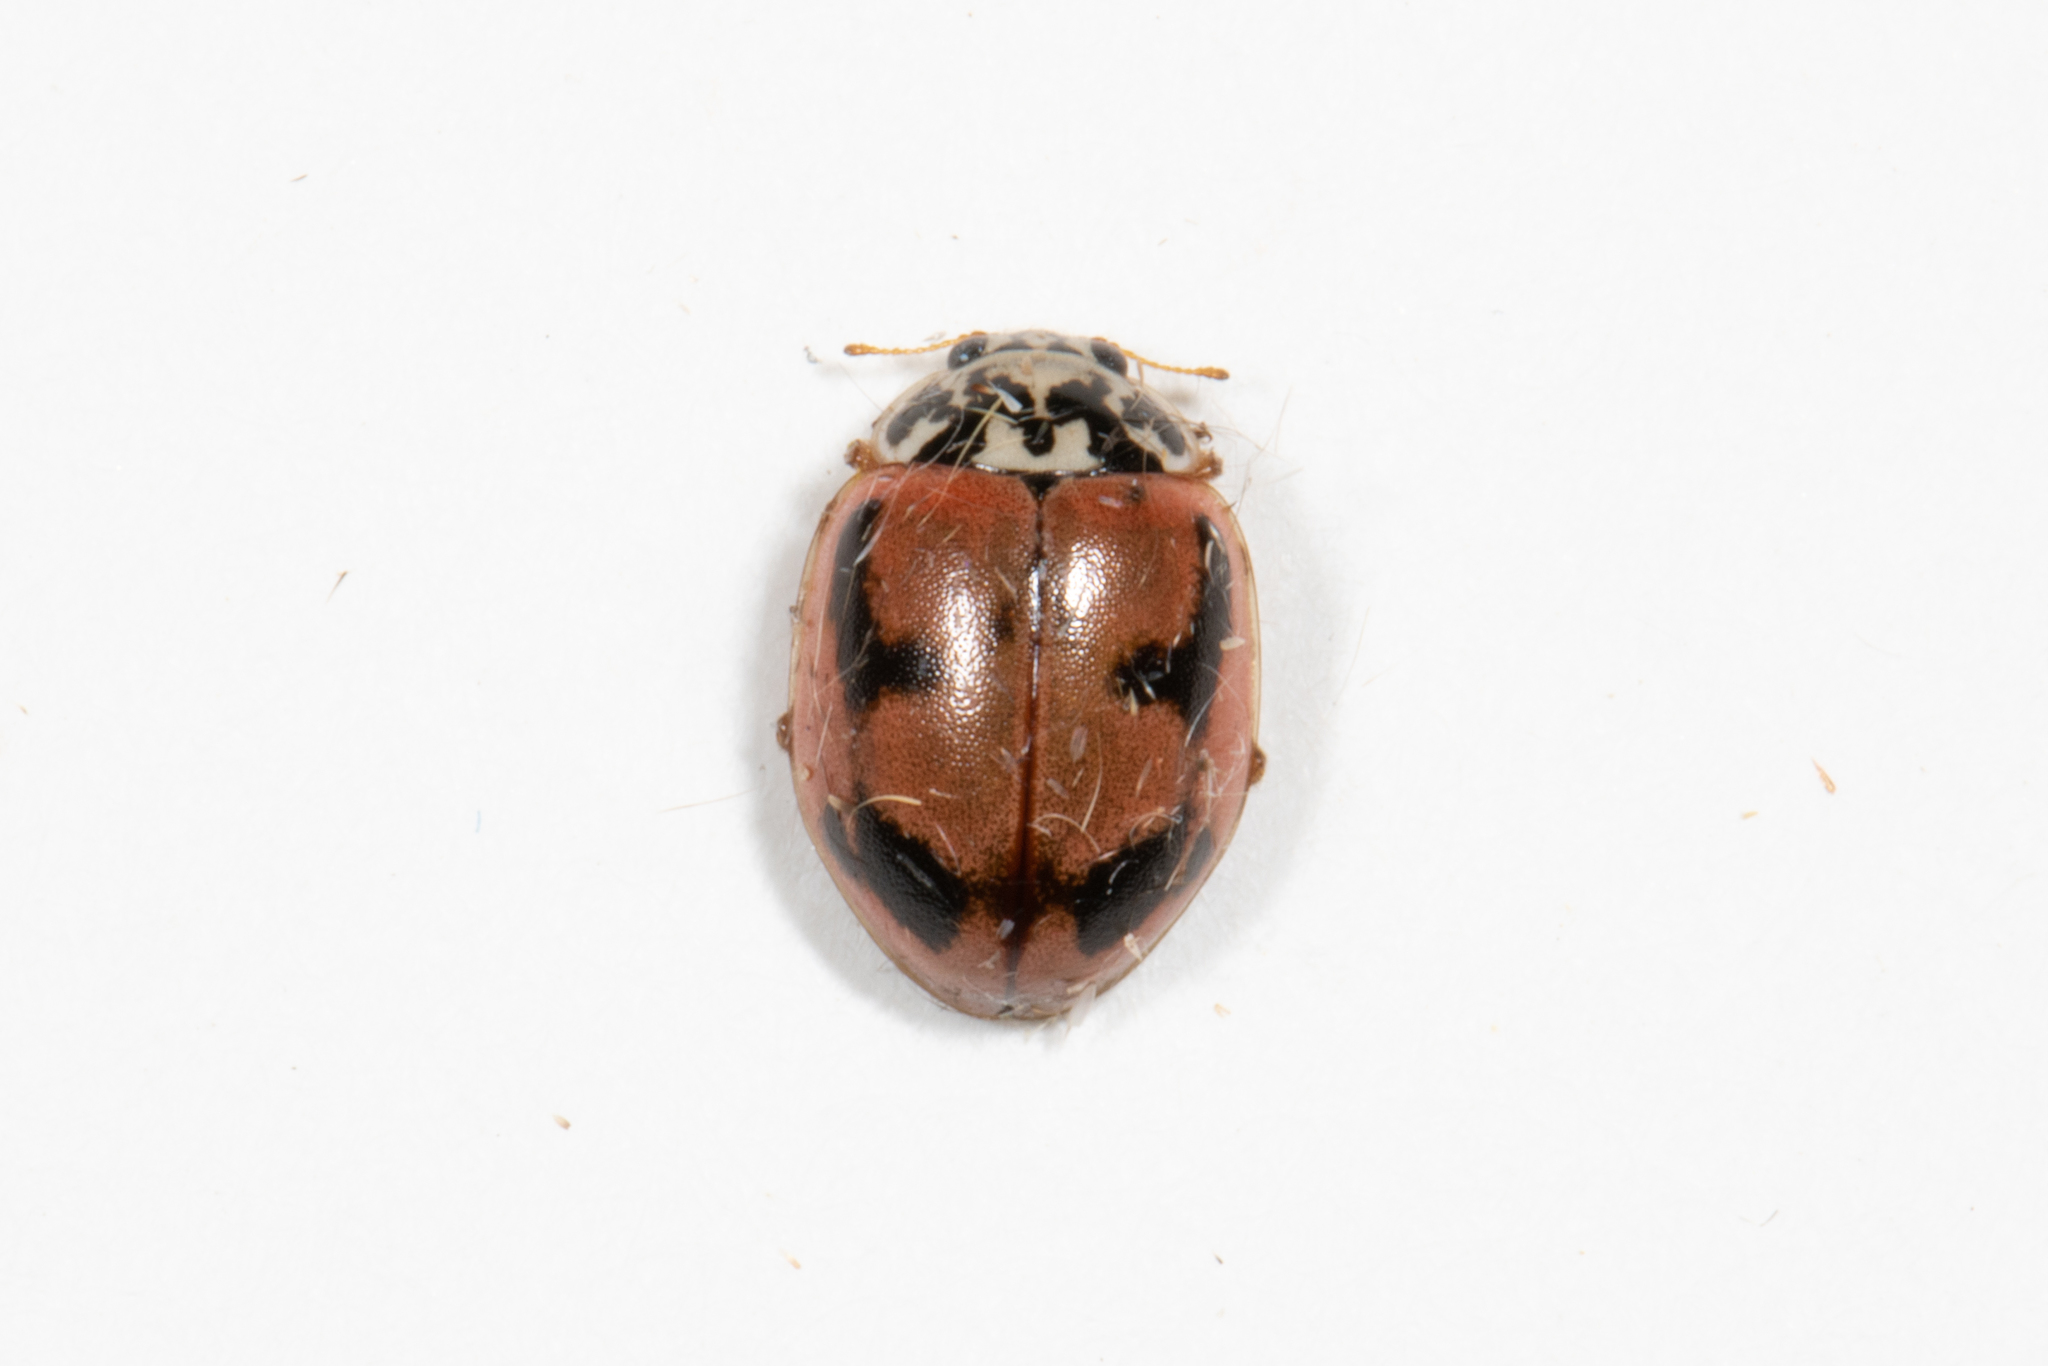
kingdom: Animalia
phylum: Arthropoda
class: Insecta
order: Coleoptera
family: Coccinellidae
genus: Mulsantina
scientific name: Mulsantina picta
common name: Painted ladybird
